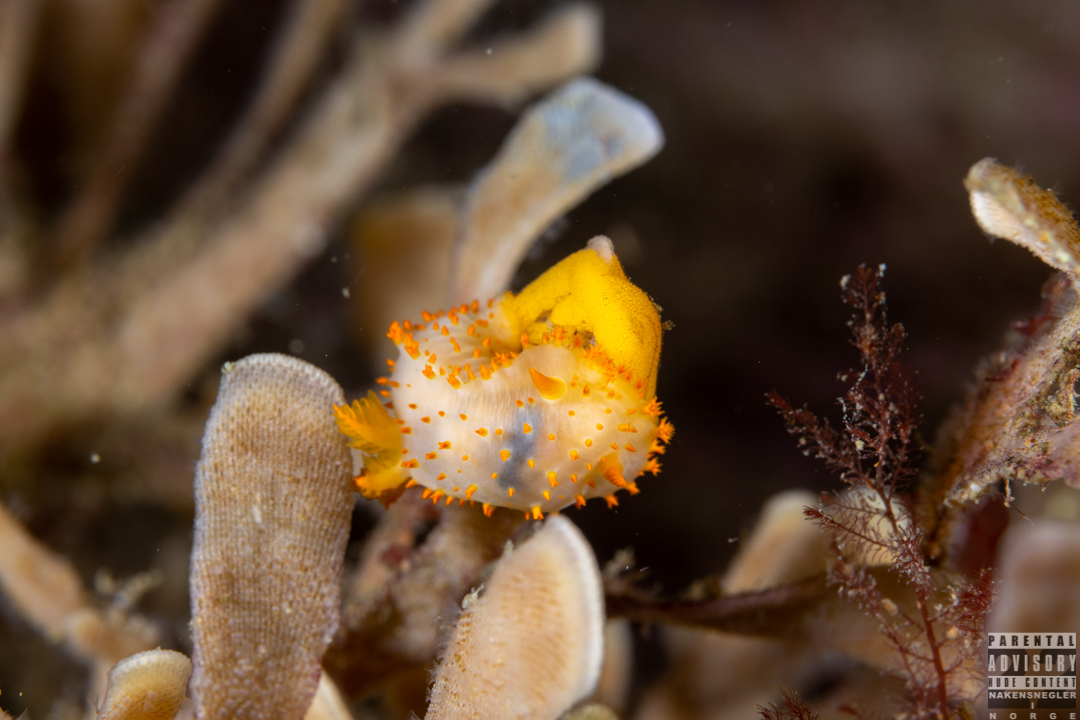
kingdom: Animalia
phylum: Mollusca
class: Gastropoda
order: Nudibranchia
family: Polyceridae
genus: Crimora
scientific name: Crimora papillata
